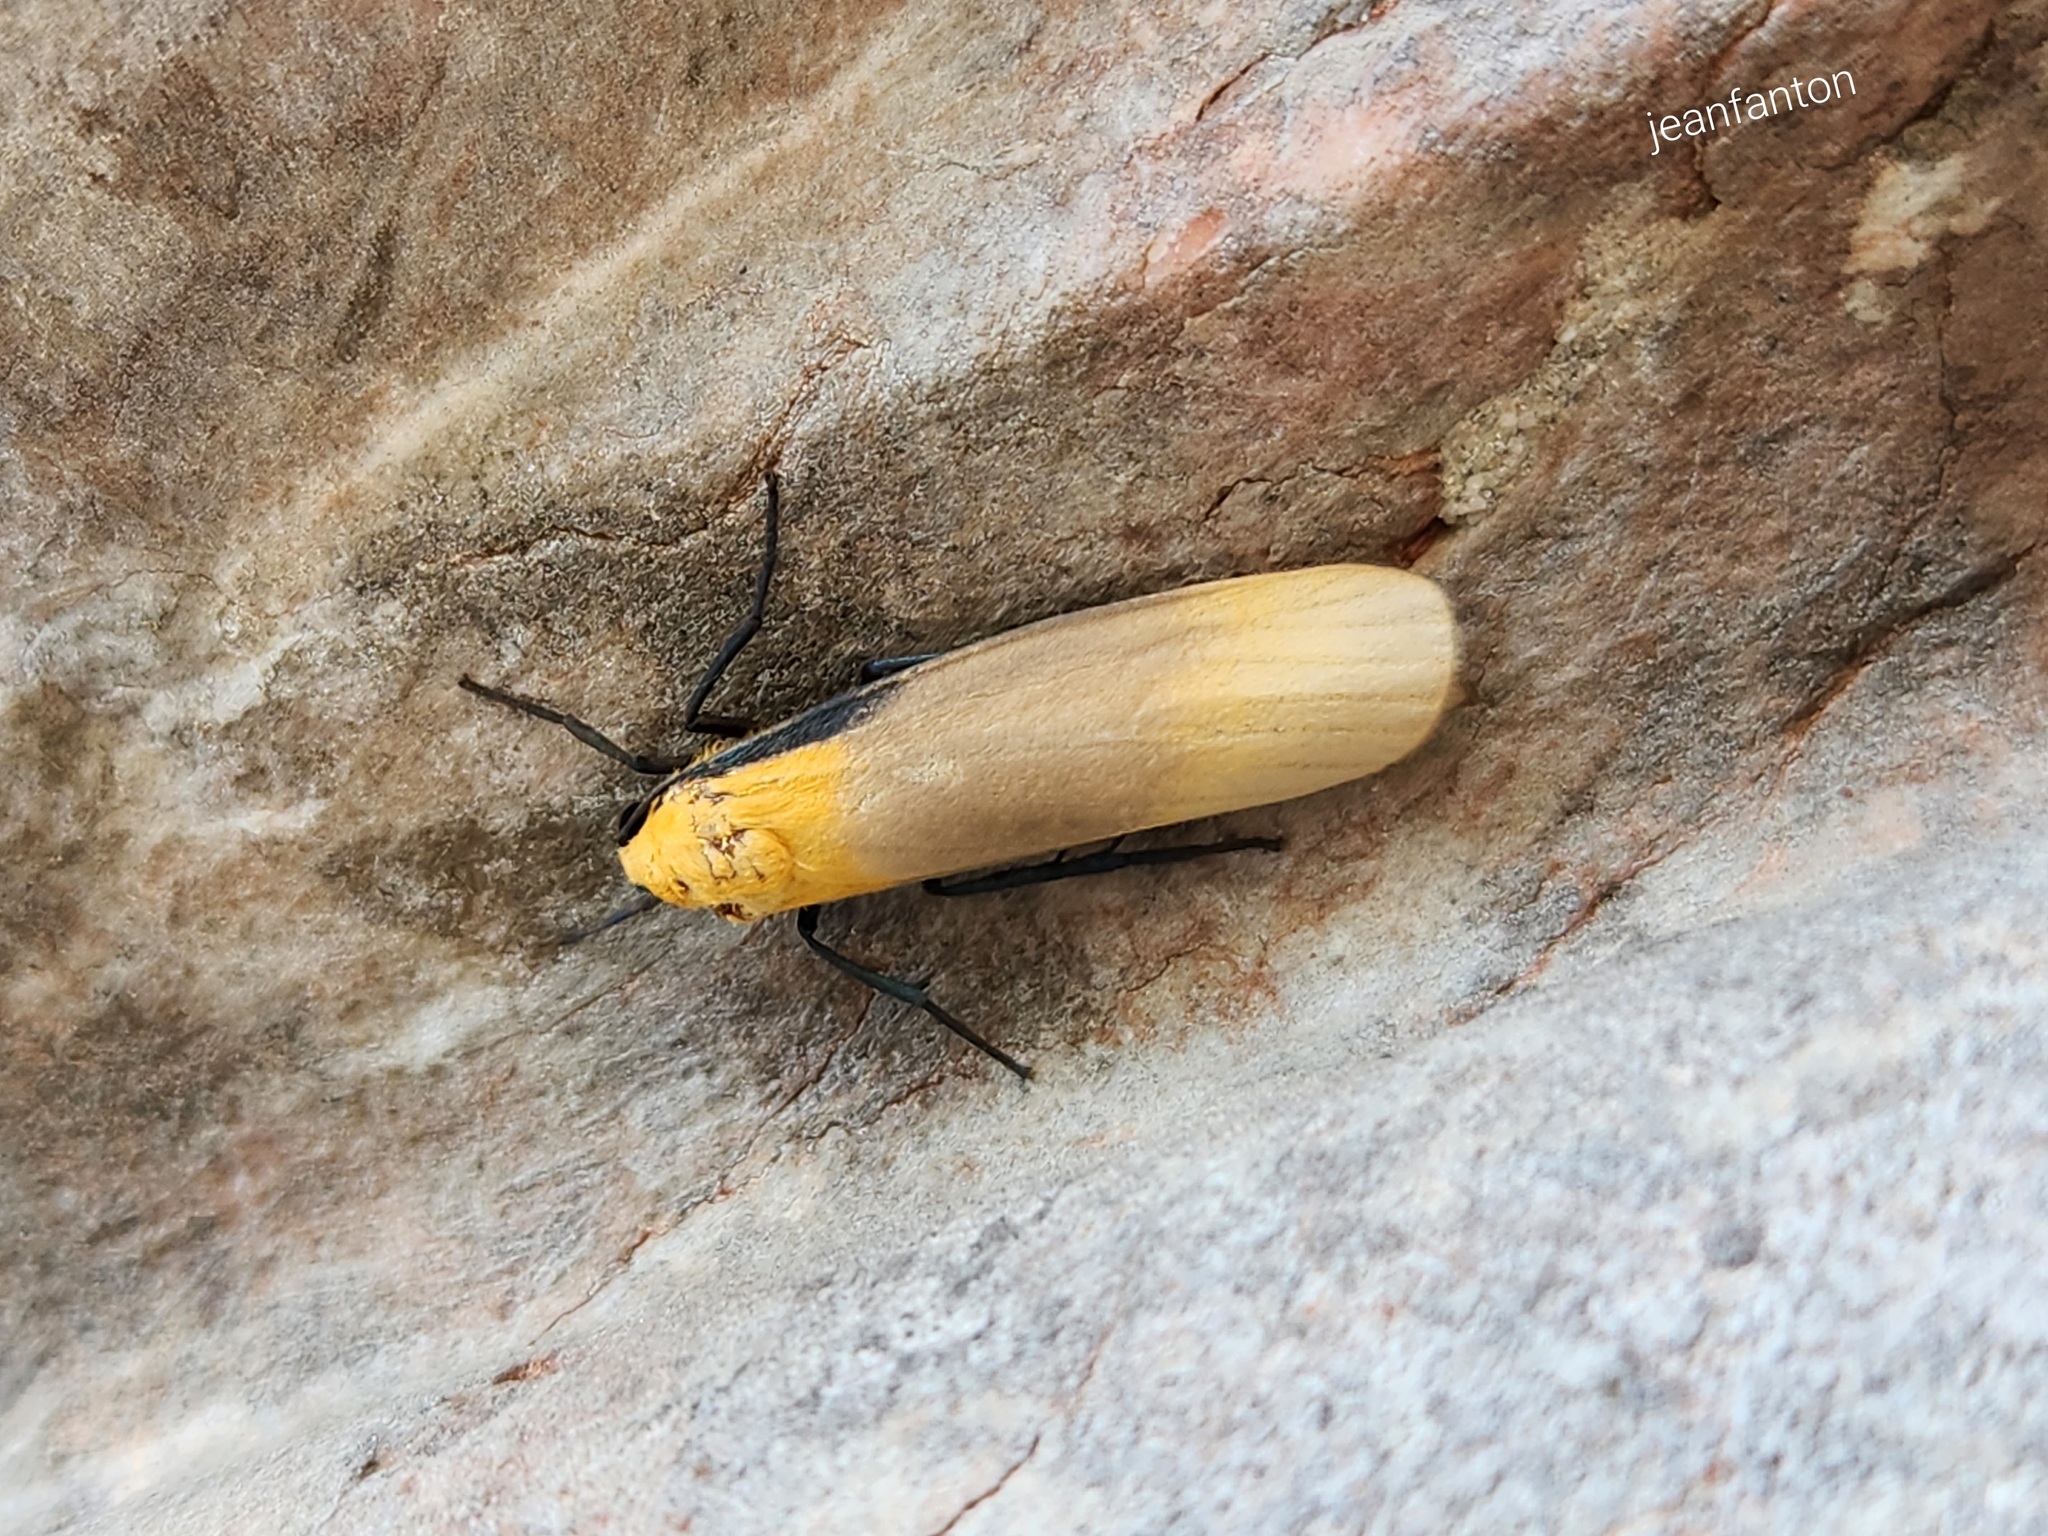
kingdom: Animalia
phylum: Arthropoda
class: Insecta
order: Lepidoptera
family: Erebidae
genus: Lithosia
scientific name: Lithosia quadra
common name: Four-spotted footman
